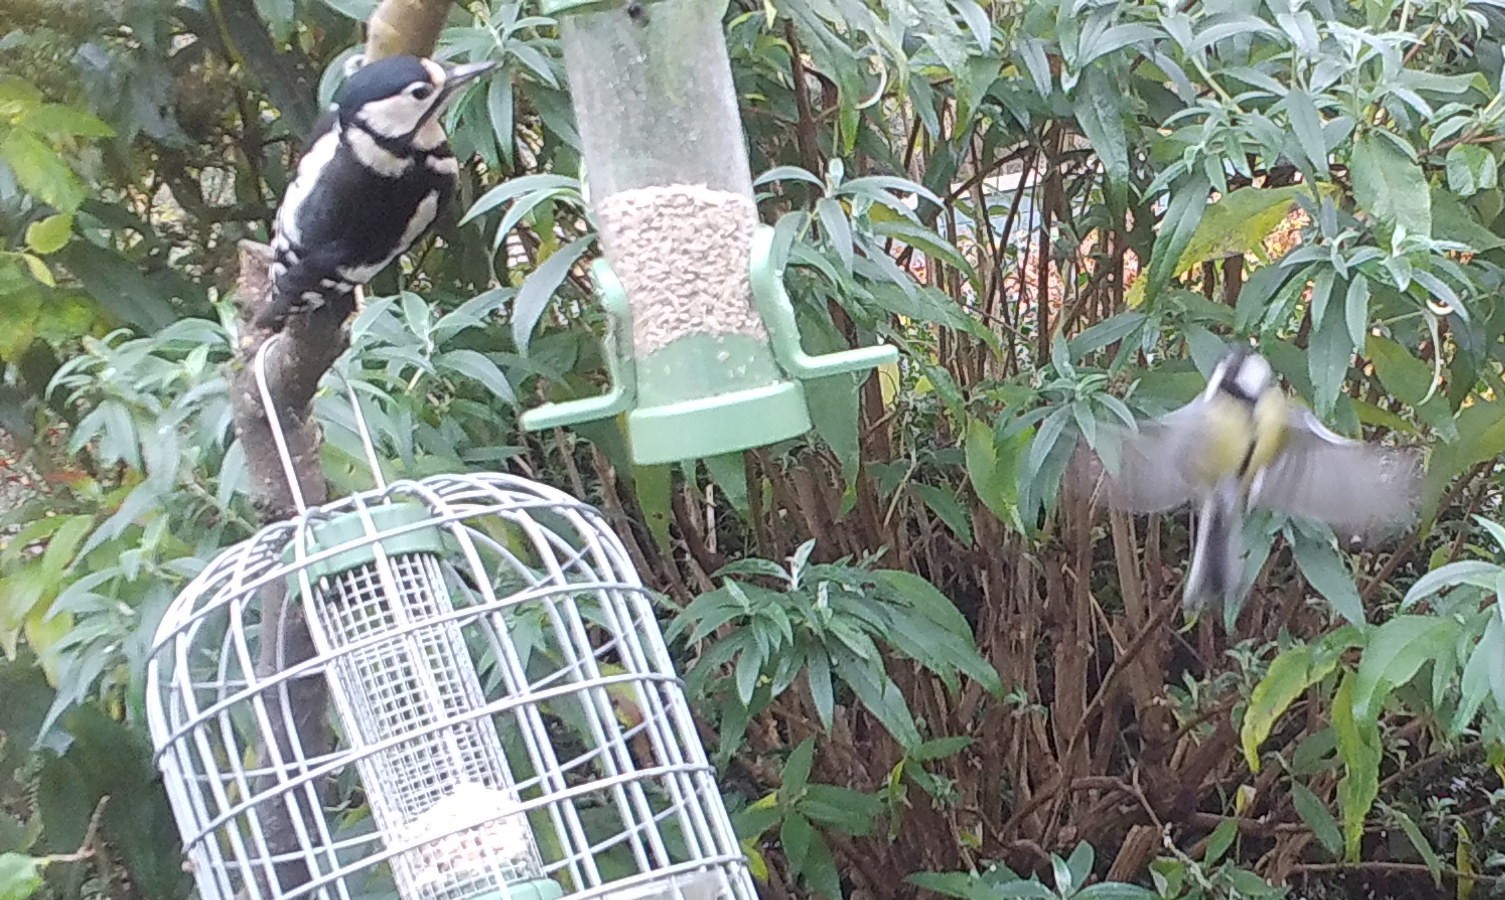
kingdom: Animalia
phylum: Chordata
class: Aves
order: Piciformes
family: Picidae
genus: Dendrocopos
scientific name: Dendrocopos major
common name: Great spotted woodpecker
